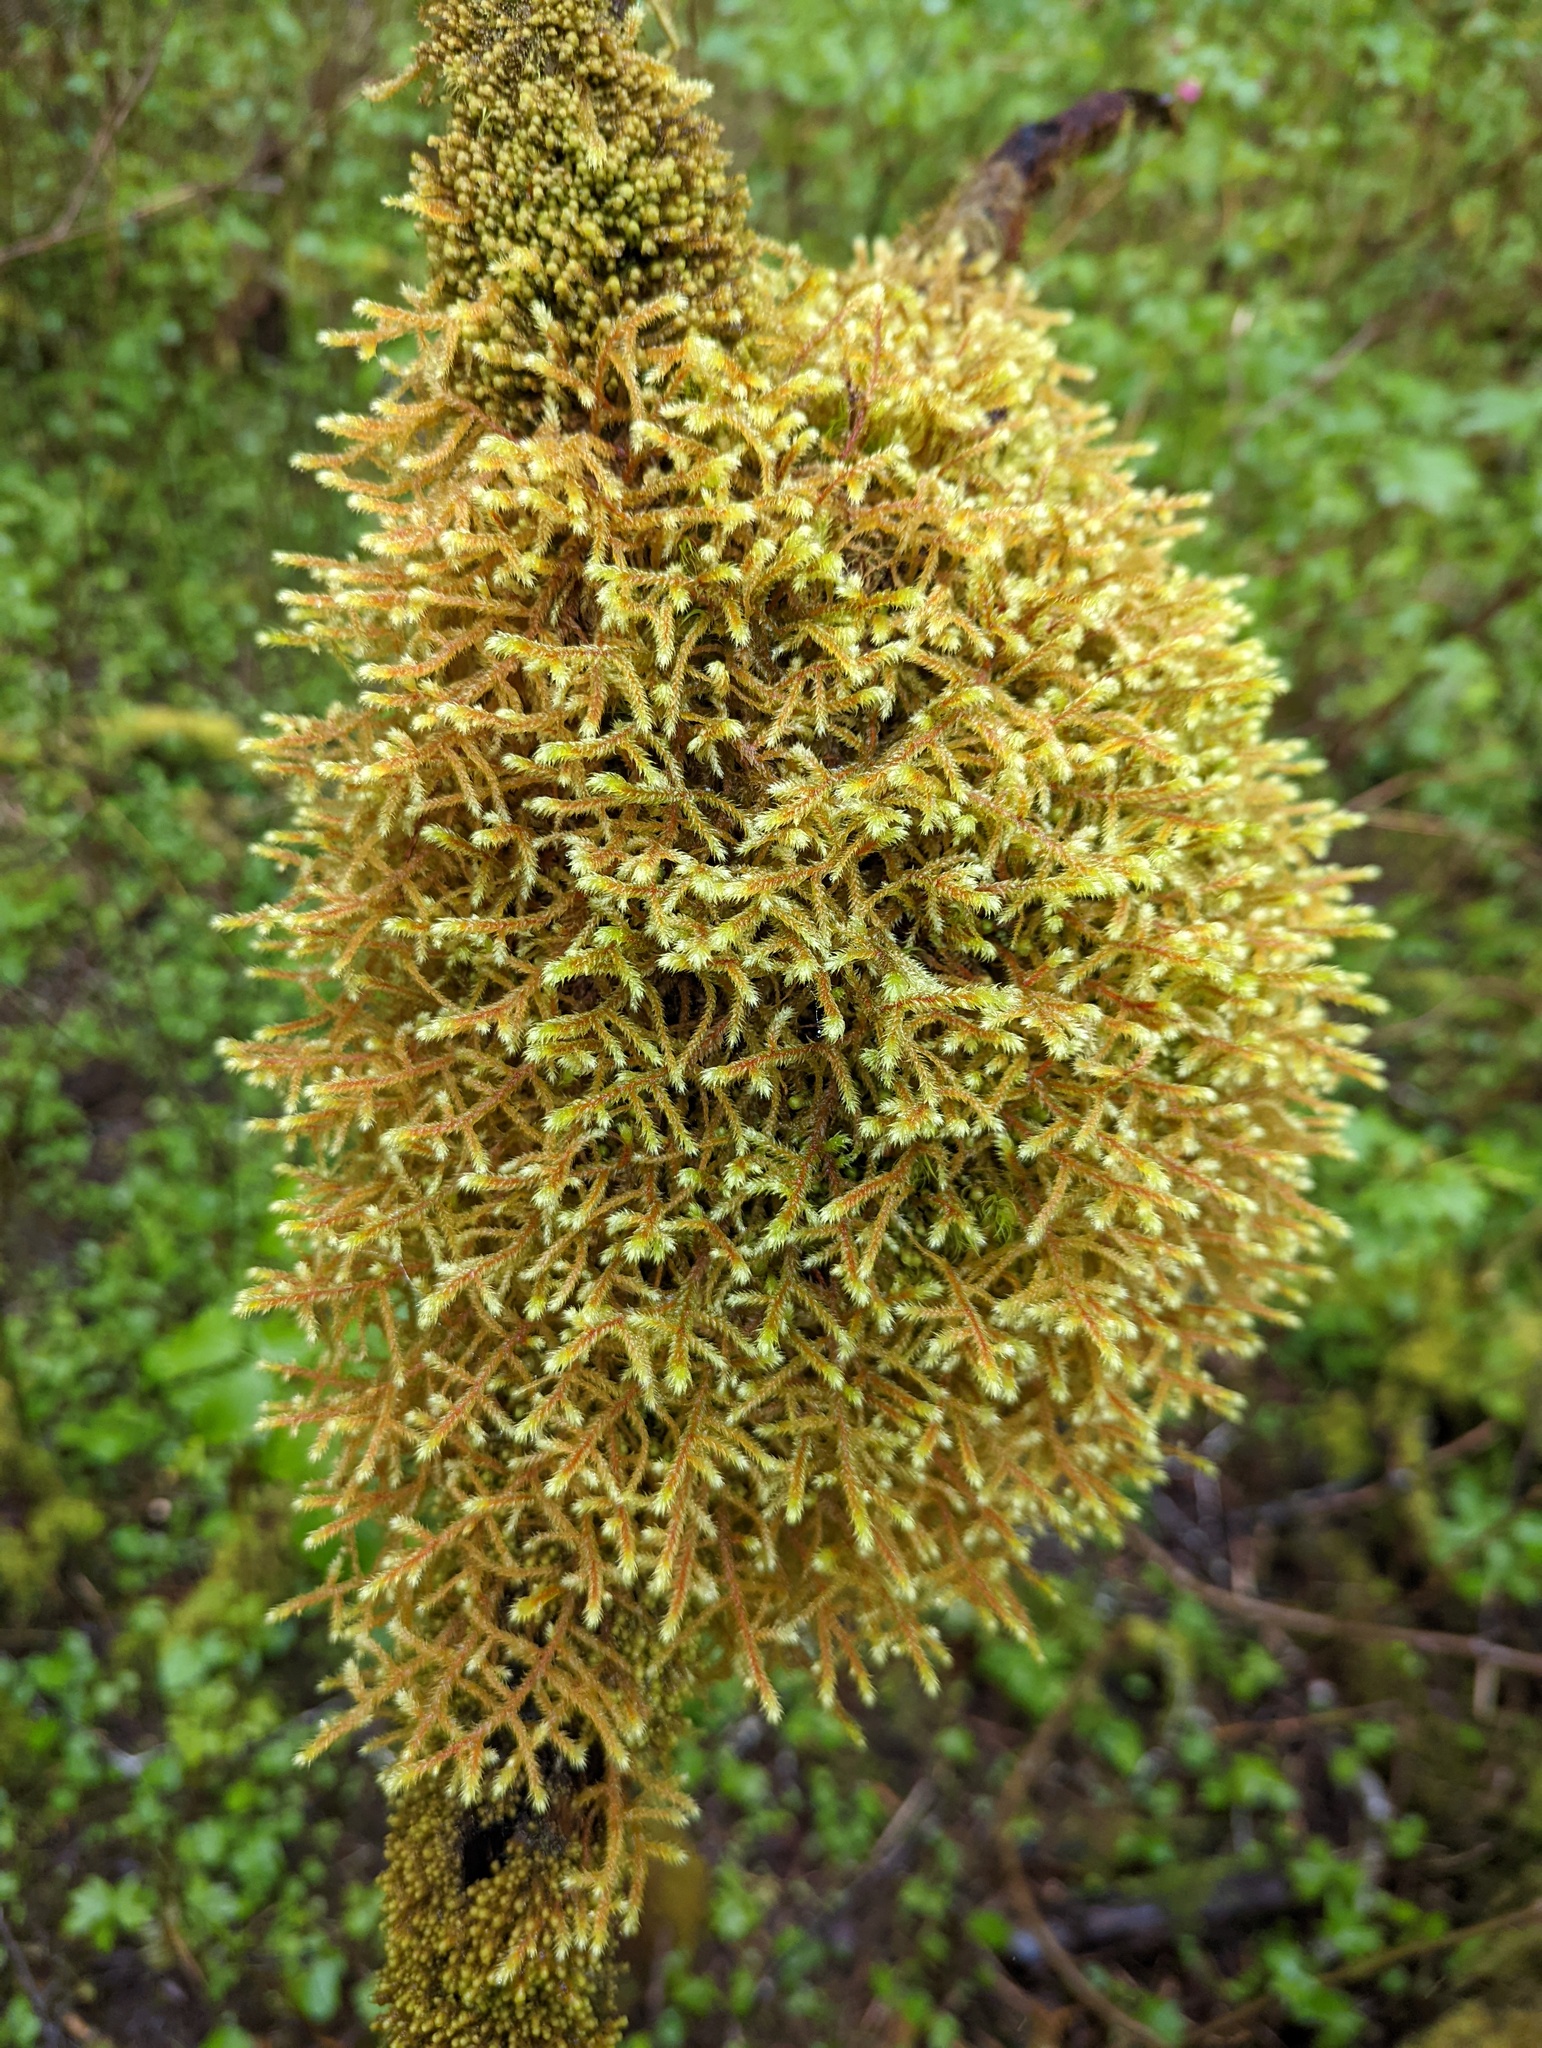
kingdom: Plantae
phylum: Bryophyta
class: Bryopsida
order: Hypnales
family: Antitrichiaceae
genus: Antitrichia
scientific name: Antitrichia curtipendula
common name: Pendulous wing-moss
